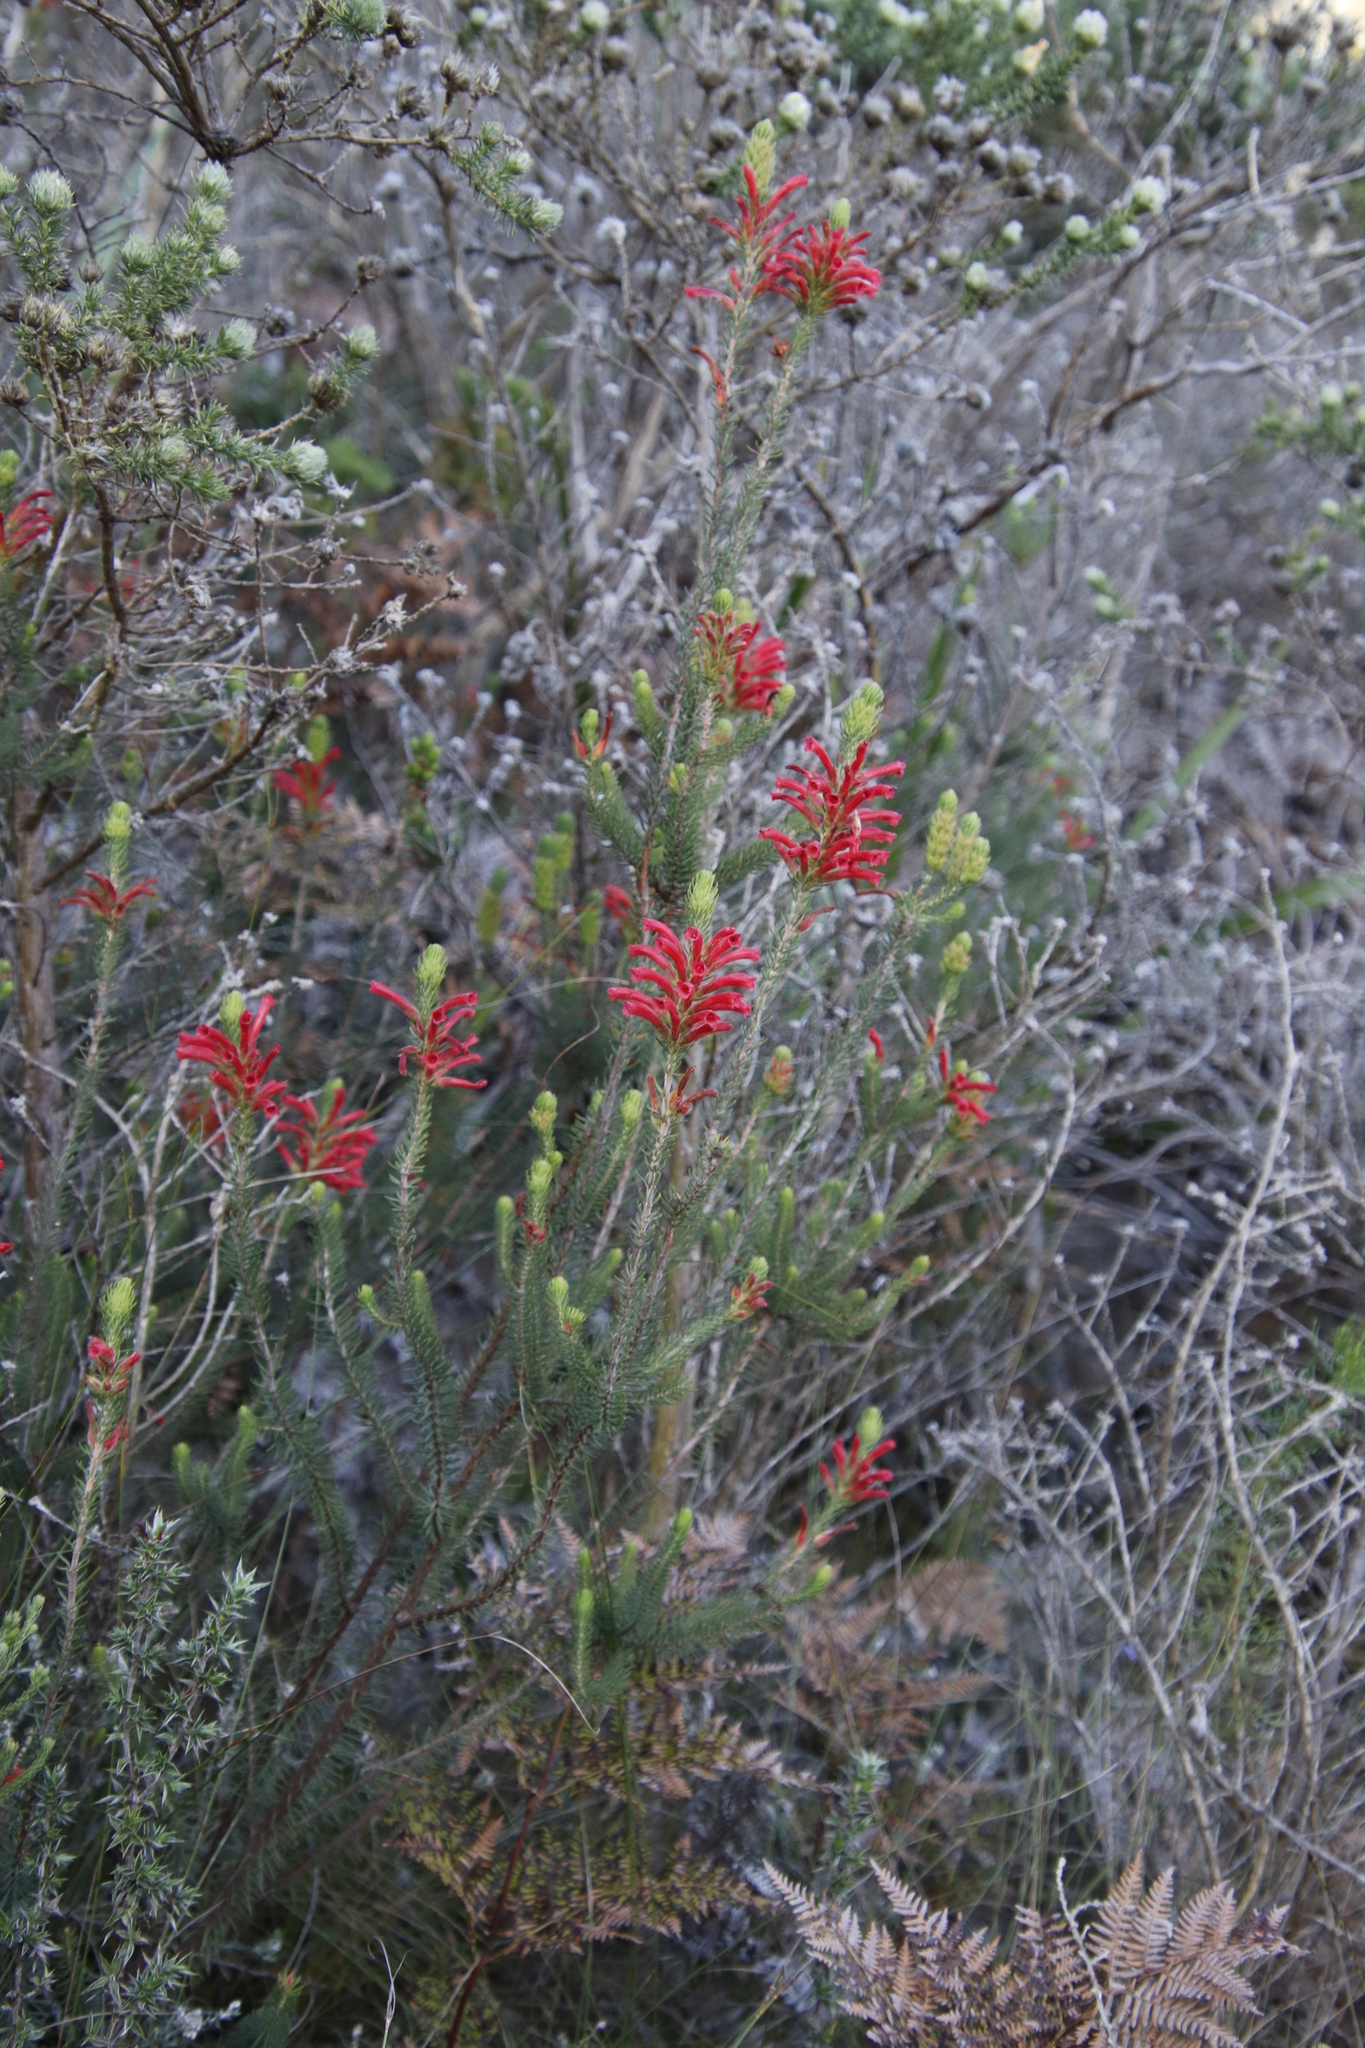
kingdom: Plantae
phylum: Tracheophyta
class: Magnoliopsida
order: Ericales
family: Ericaceae
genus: Erica
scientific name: Erica abietina
